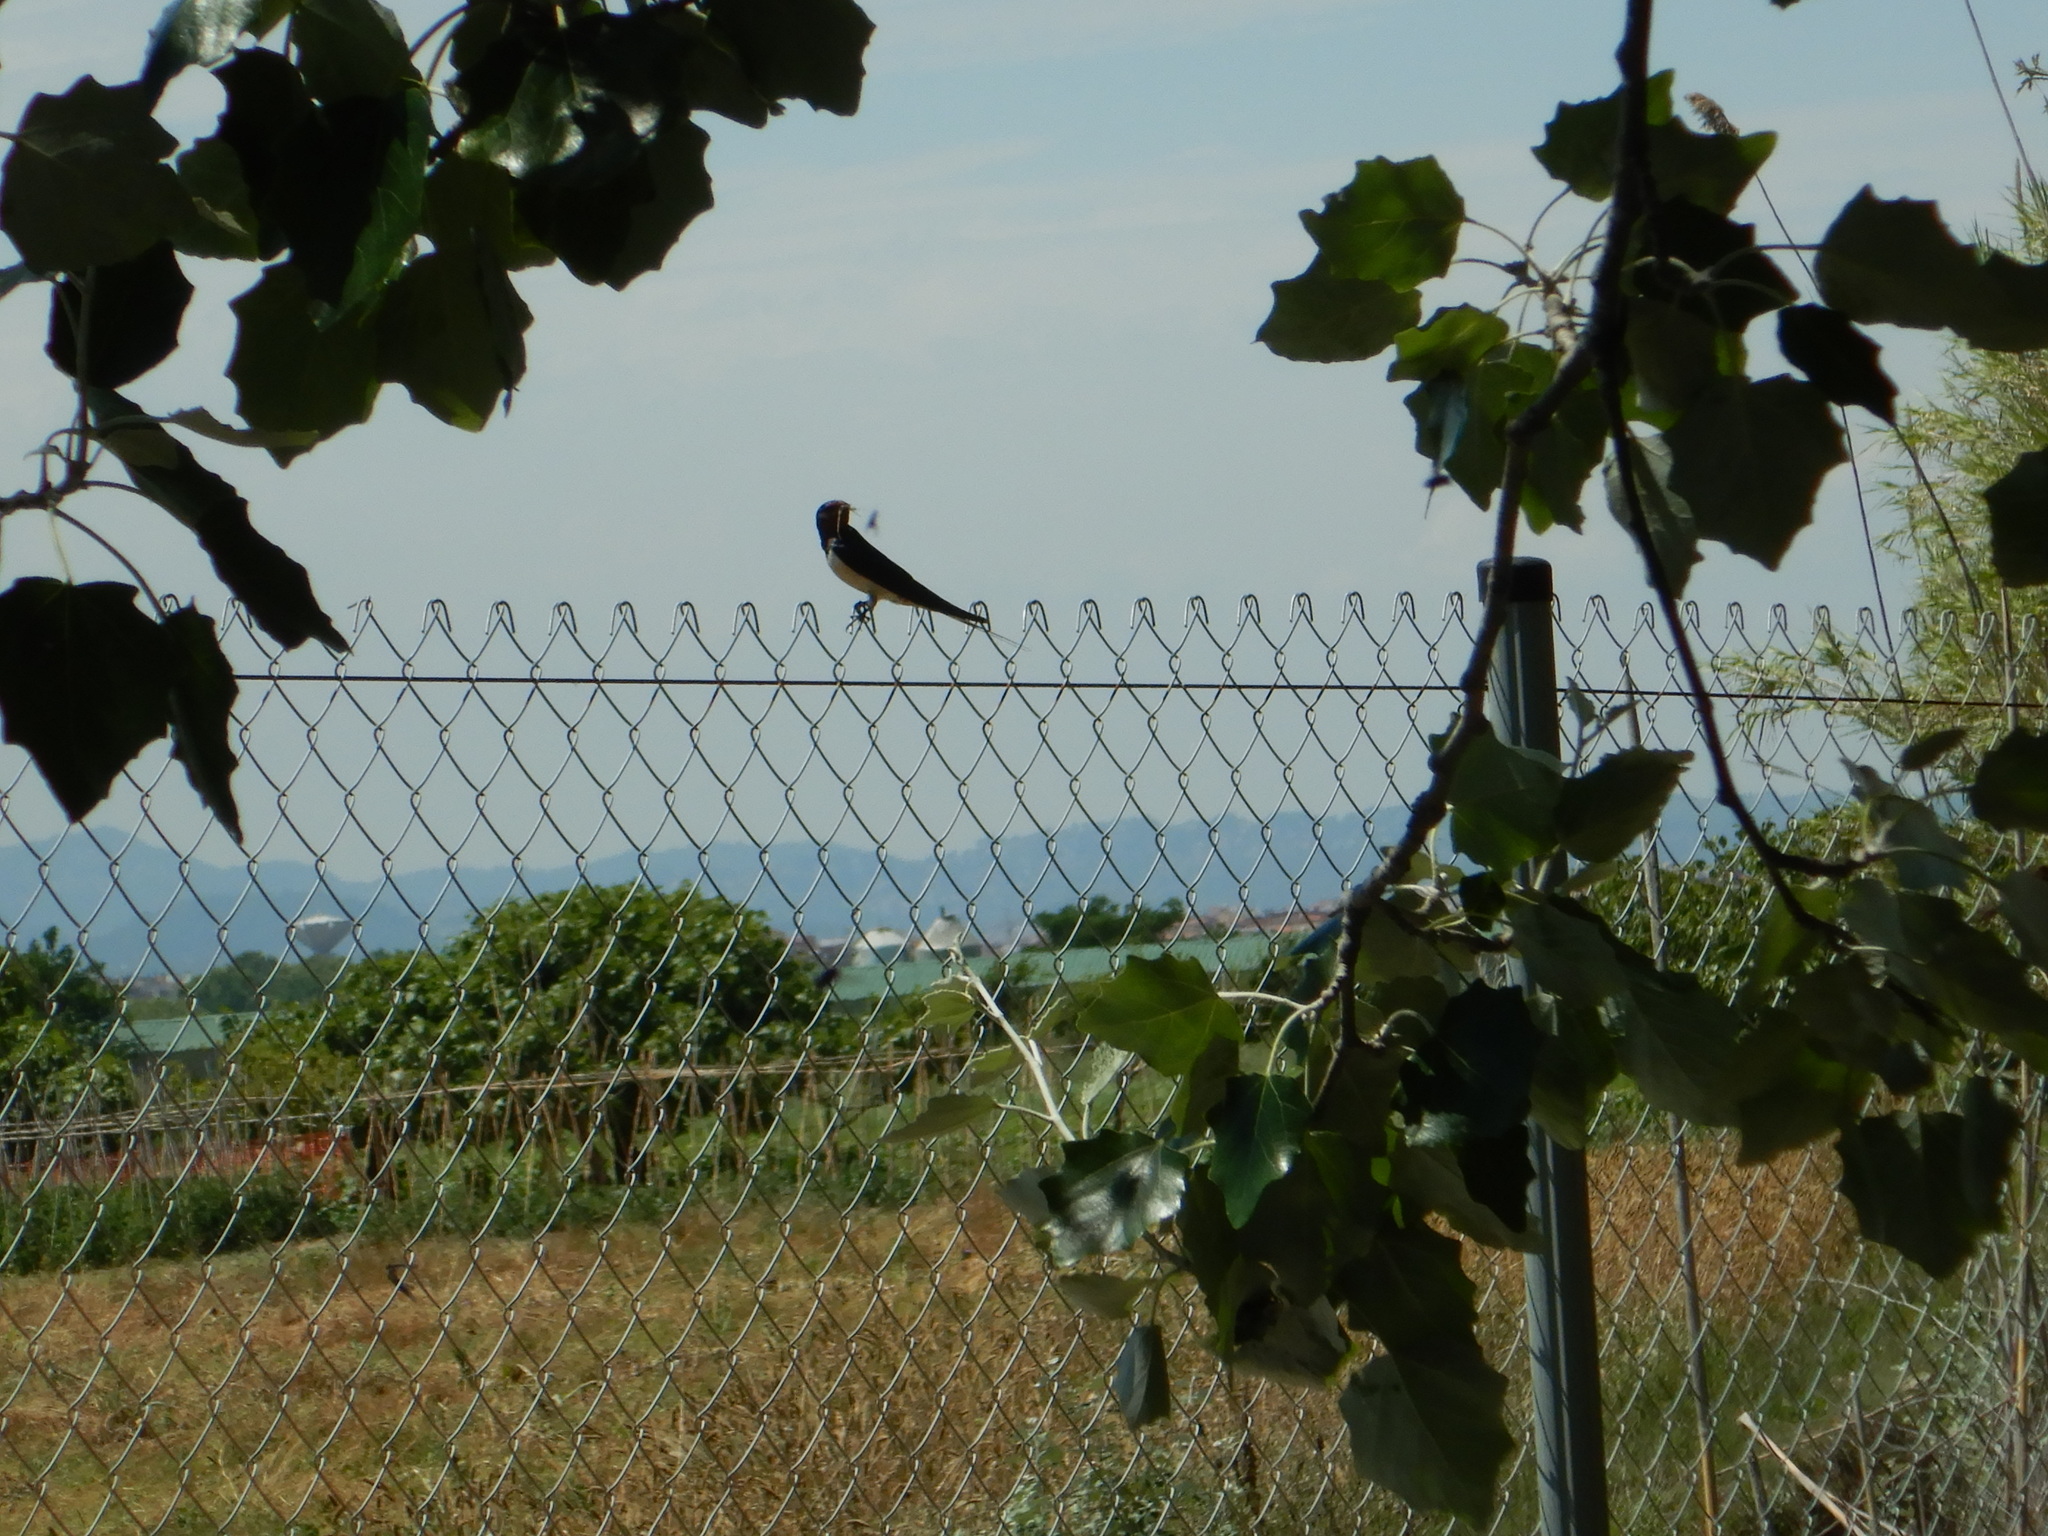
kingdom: Animalia
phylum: Chordata
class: Aves
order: Passeriformes
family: Hirundinidae
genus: Hirundo
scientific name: Hirundo rustica
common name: Barn swallow
